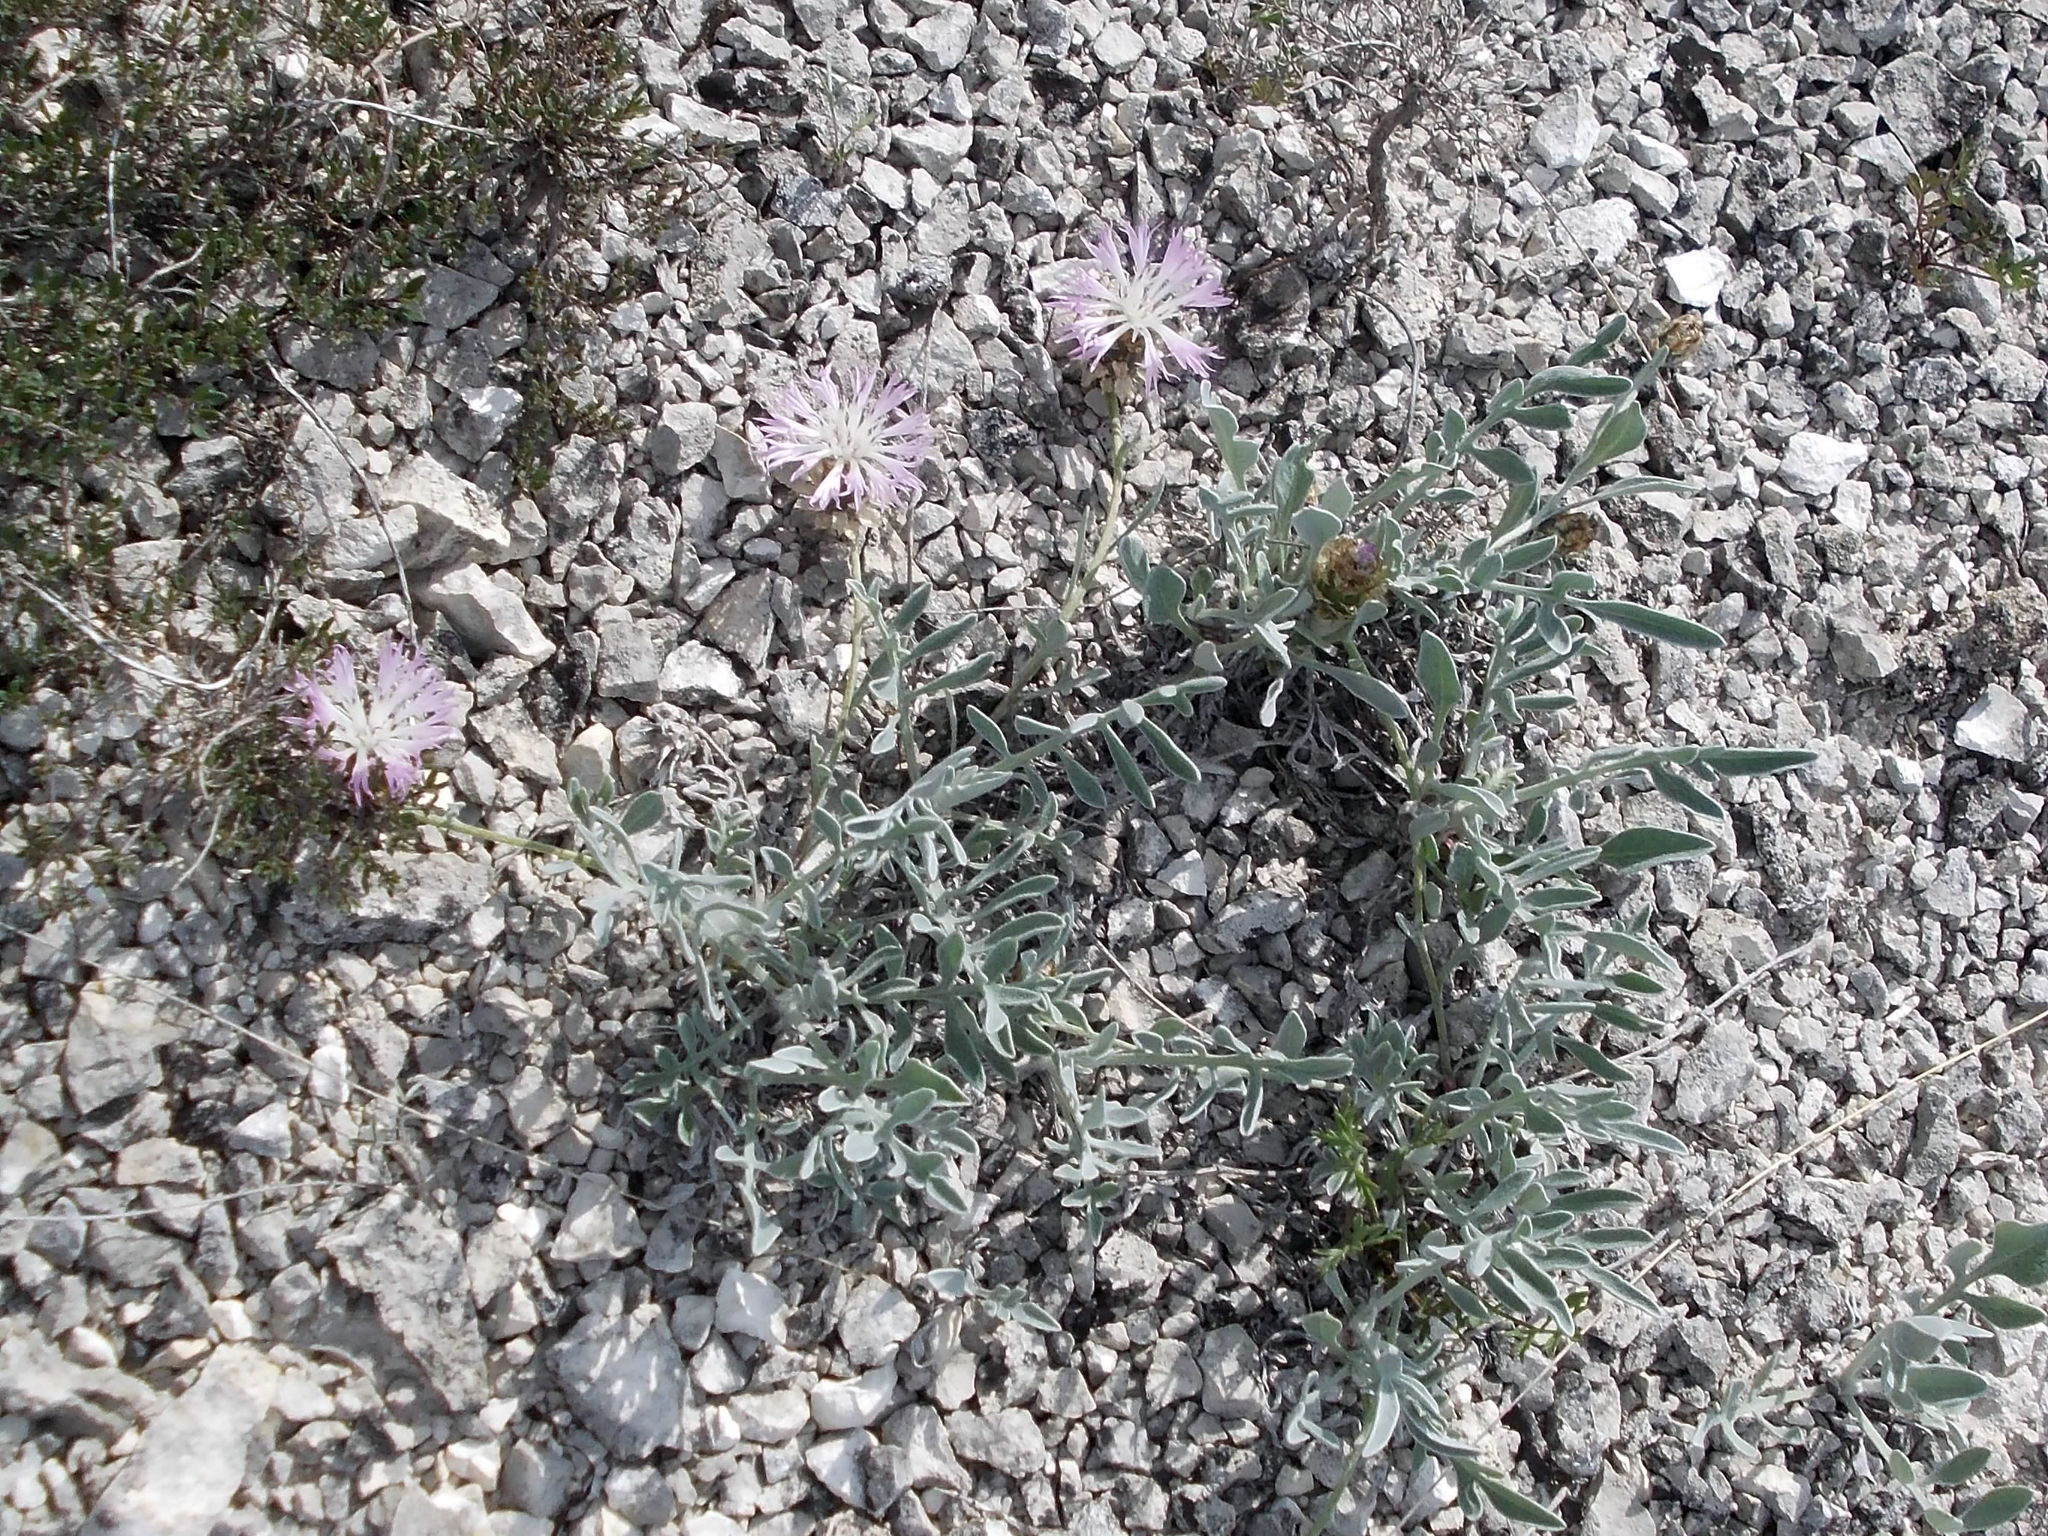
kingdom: Plantae
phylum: Tracheophyta
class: Magnoliopsida
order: Asterales
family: Asteraceae
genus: Psephellus
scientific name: Psephellus carbonatus
